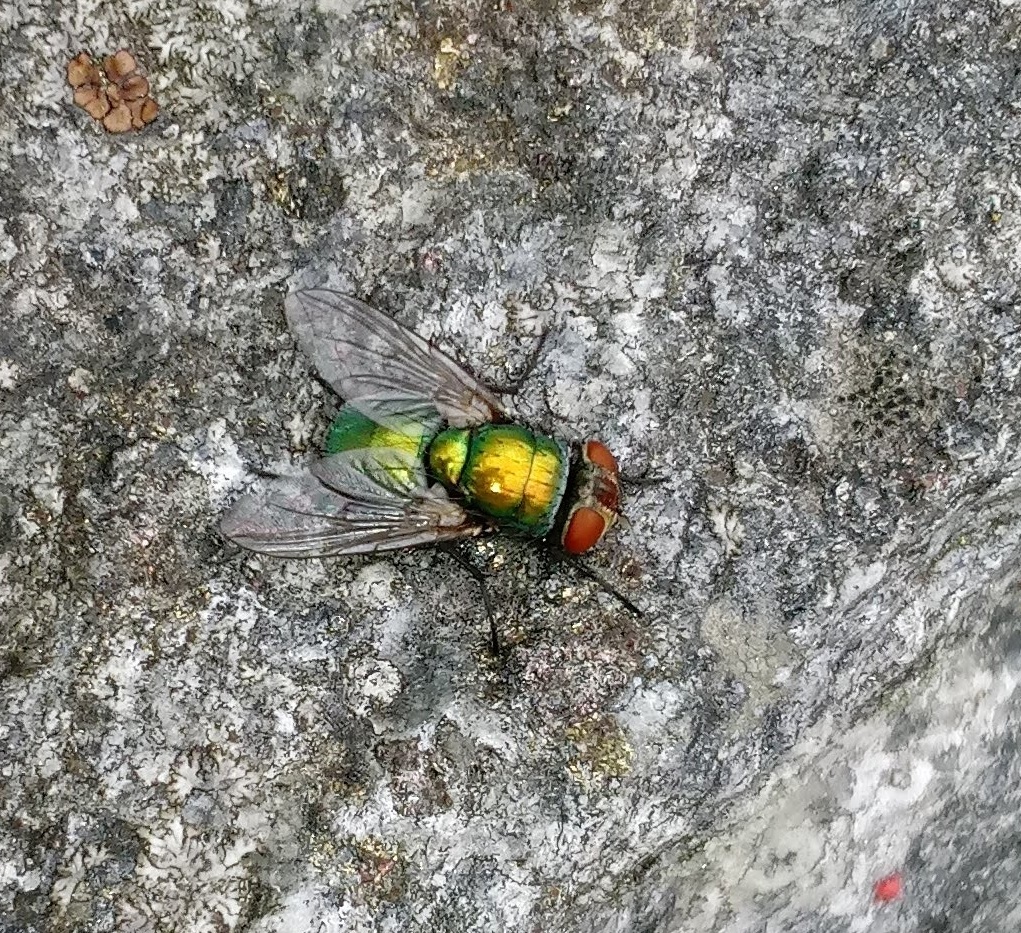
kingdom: Animalia
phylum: Arthropoda
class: Insecta
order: Diptera
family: Calliphoridae
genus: Lucilia
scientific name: Lucilia sericata
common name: Blow fly
